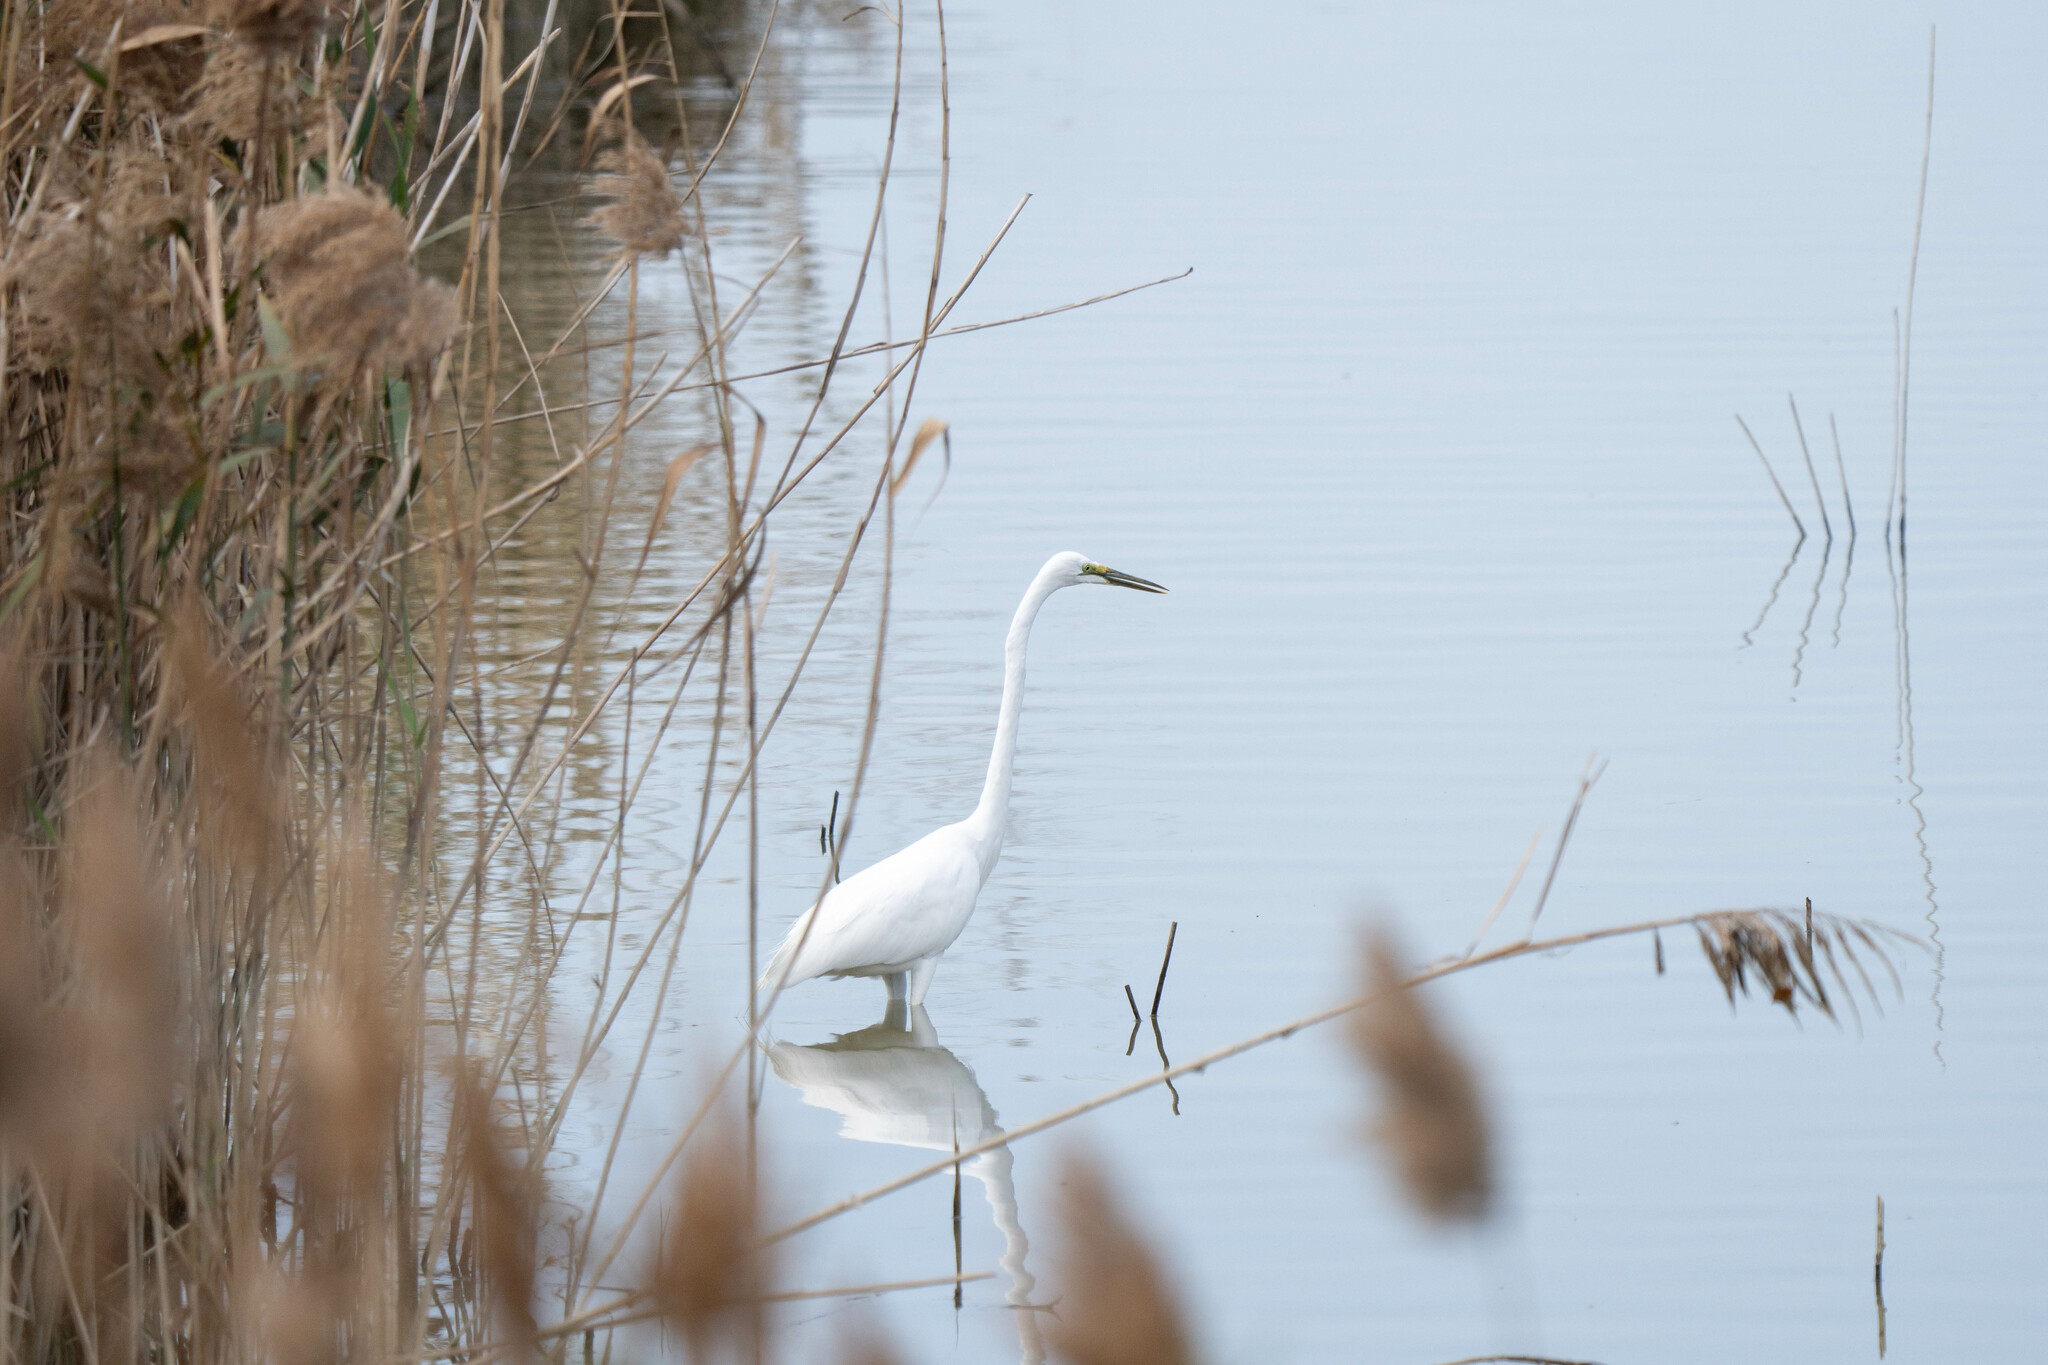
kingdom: Animalia
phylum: Chordata
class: Aves
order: Pelecaniformes
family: Ardeidae
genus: Ardea
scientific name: Ardea alba
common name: Great egret
